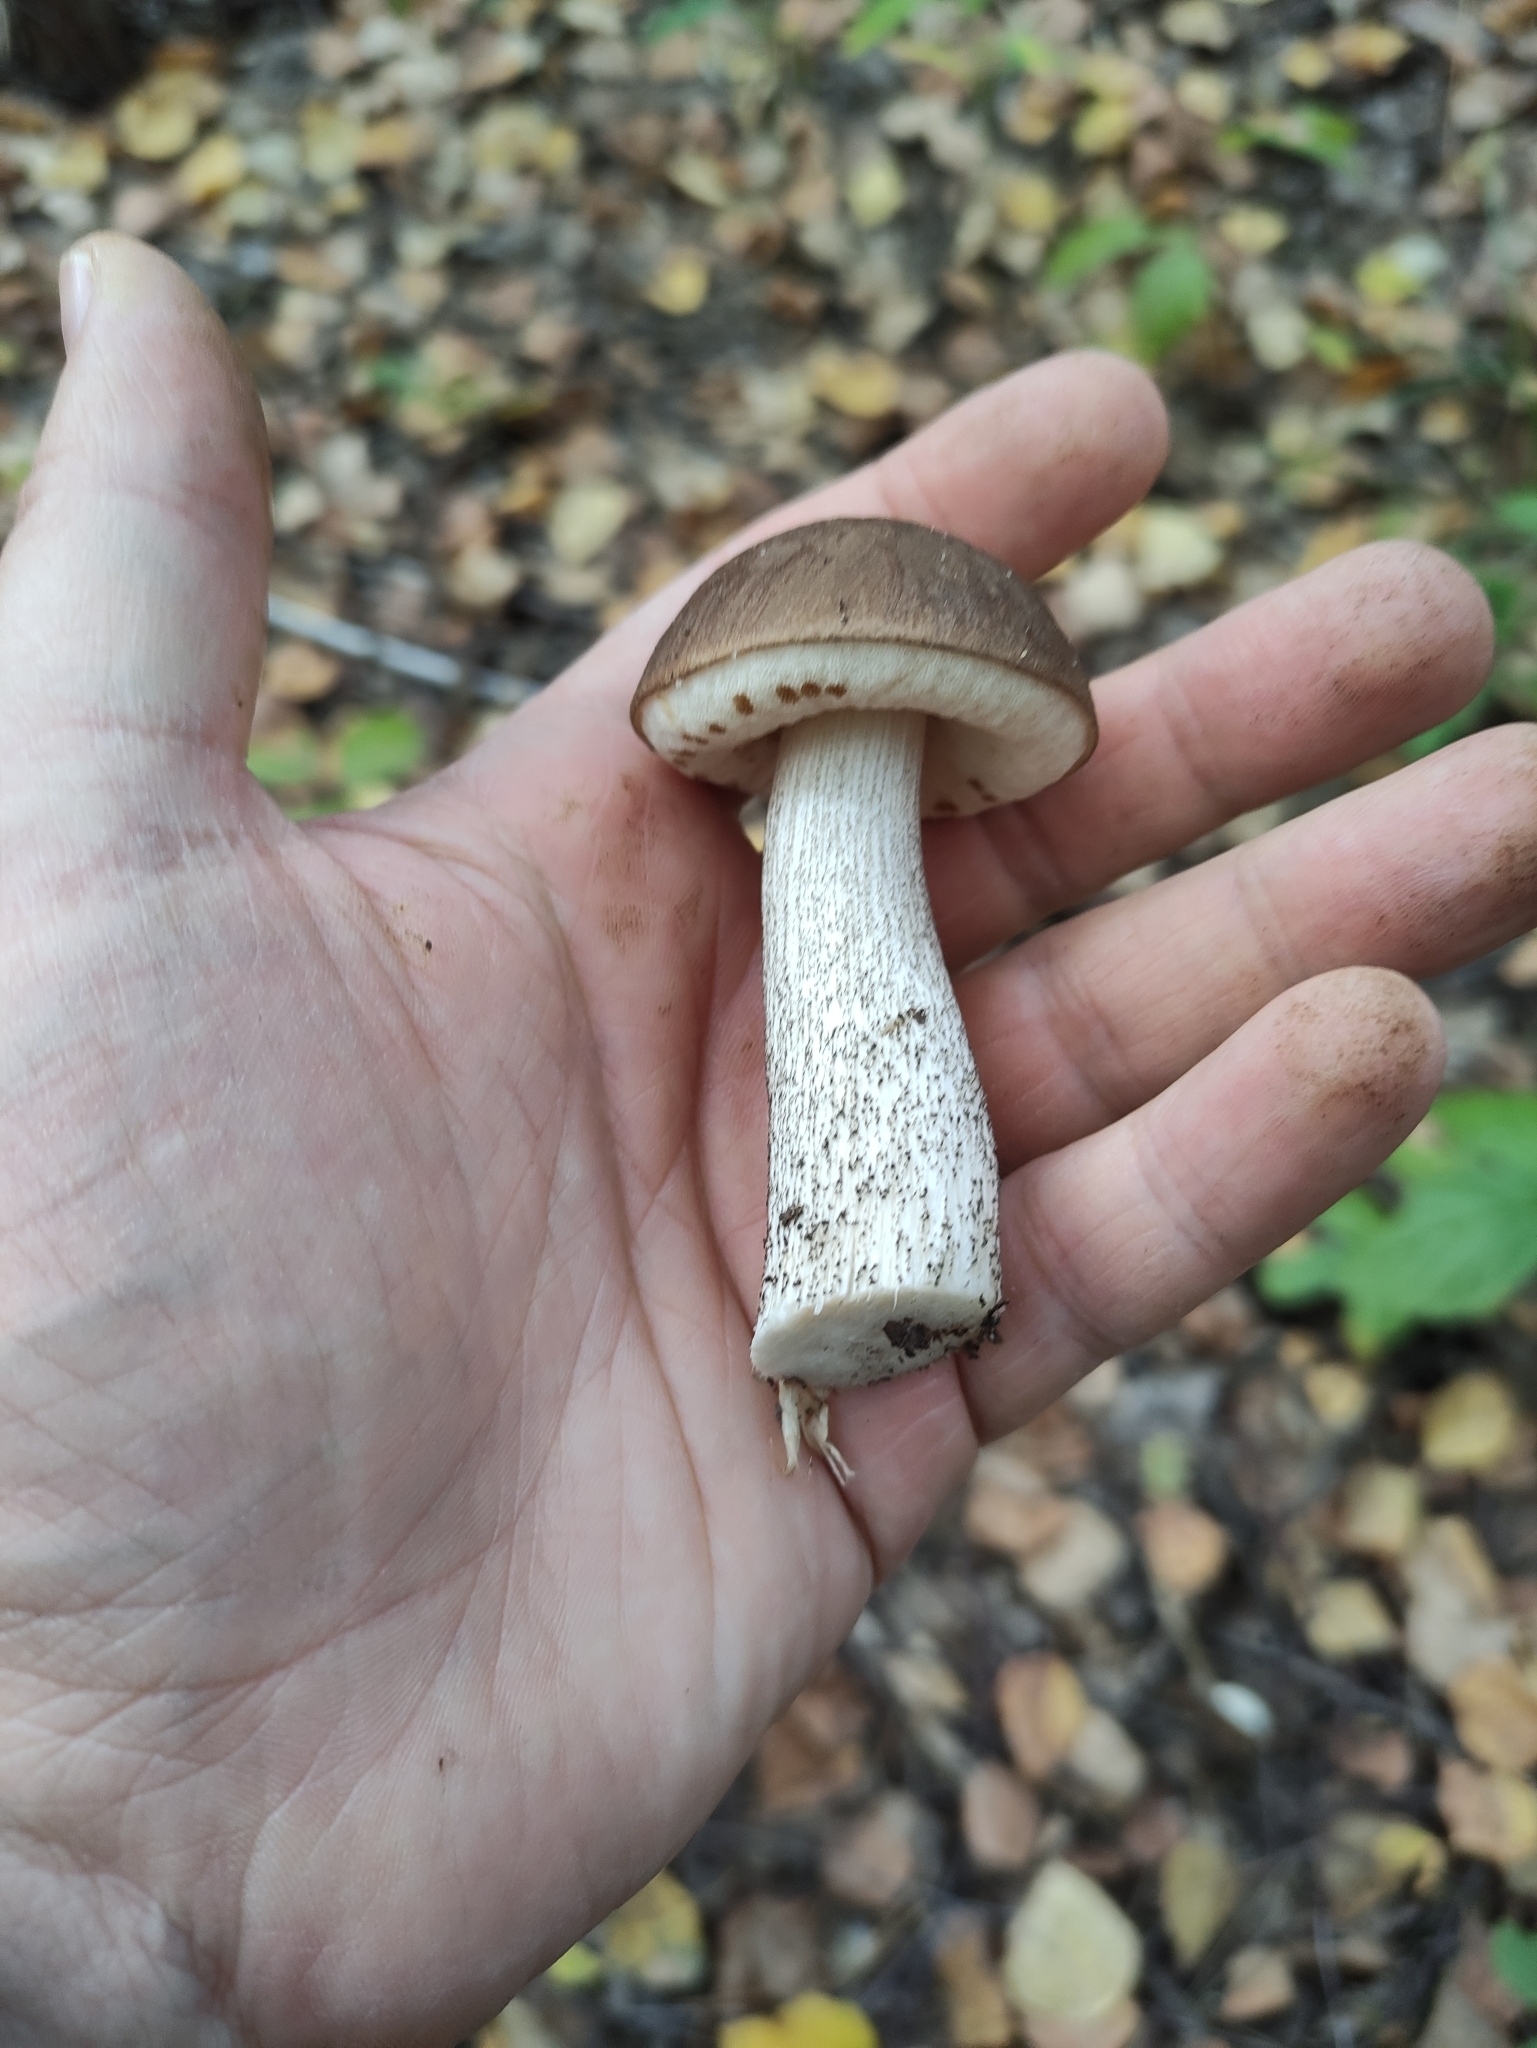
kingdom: Fungi
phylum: Basidiomycota
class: Agaricomycetes
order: Boletales
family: Boletaceae
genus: Leccinum
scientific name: Leccinum scabrum
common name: Blushing bolete
